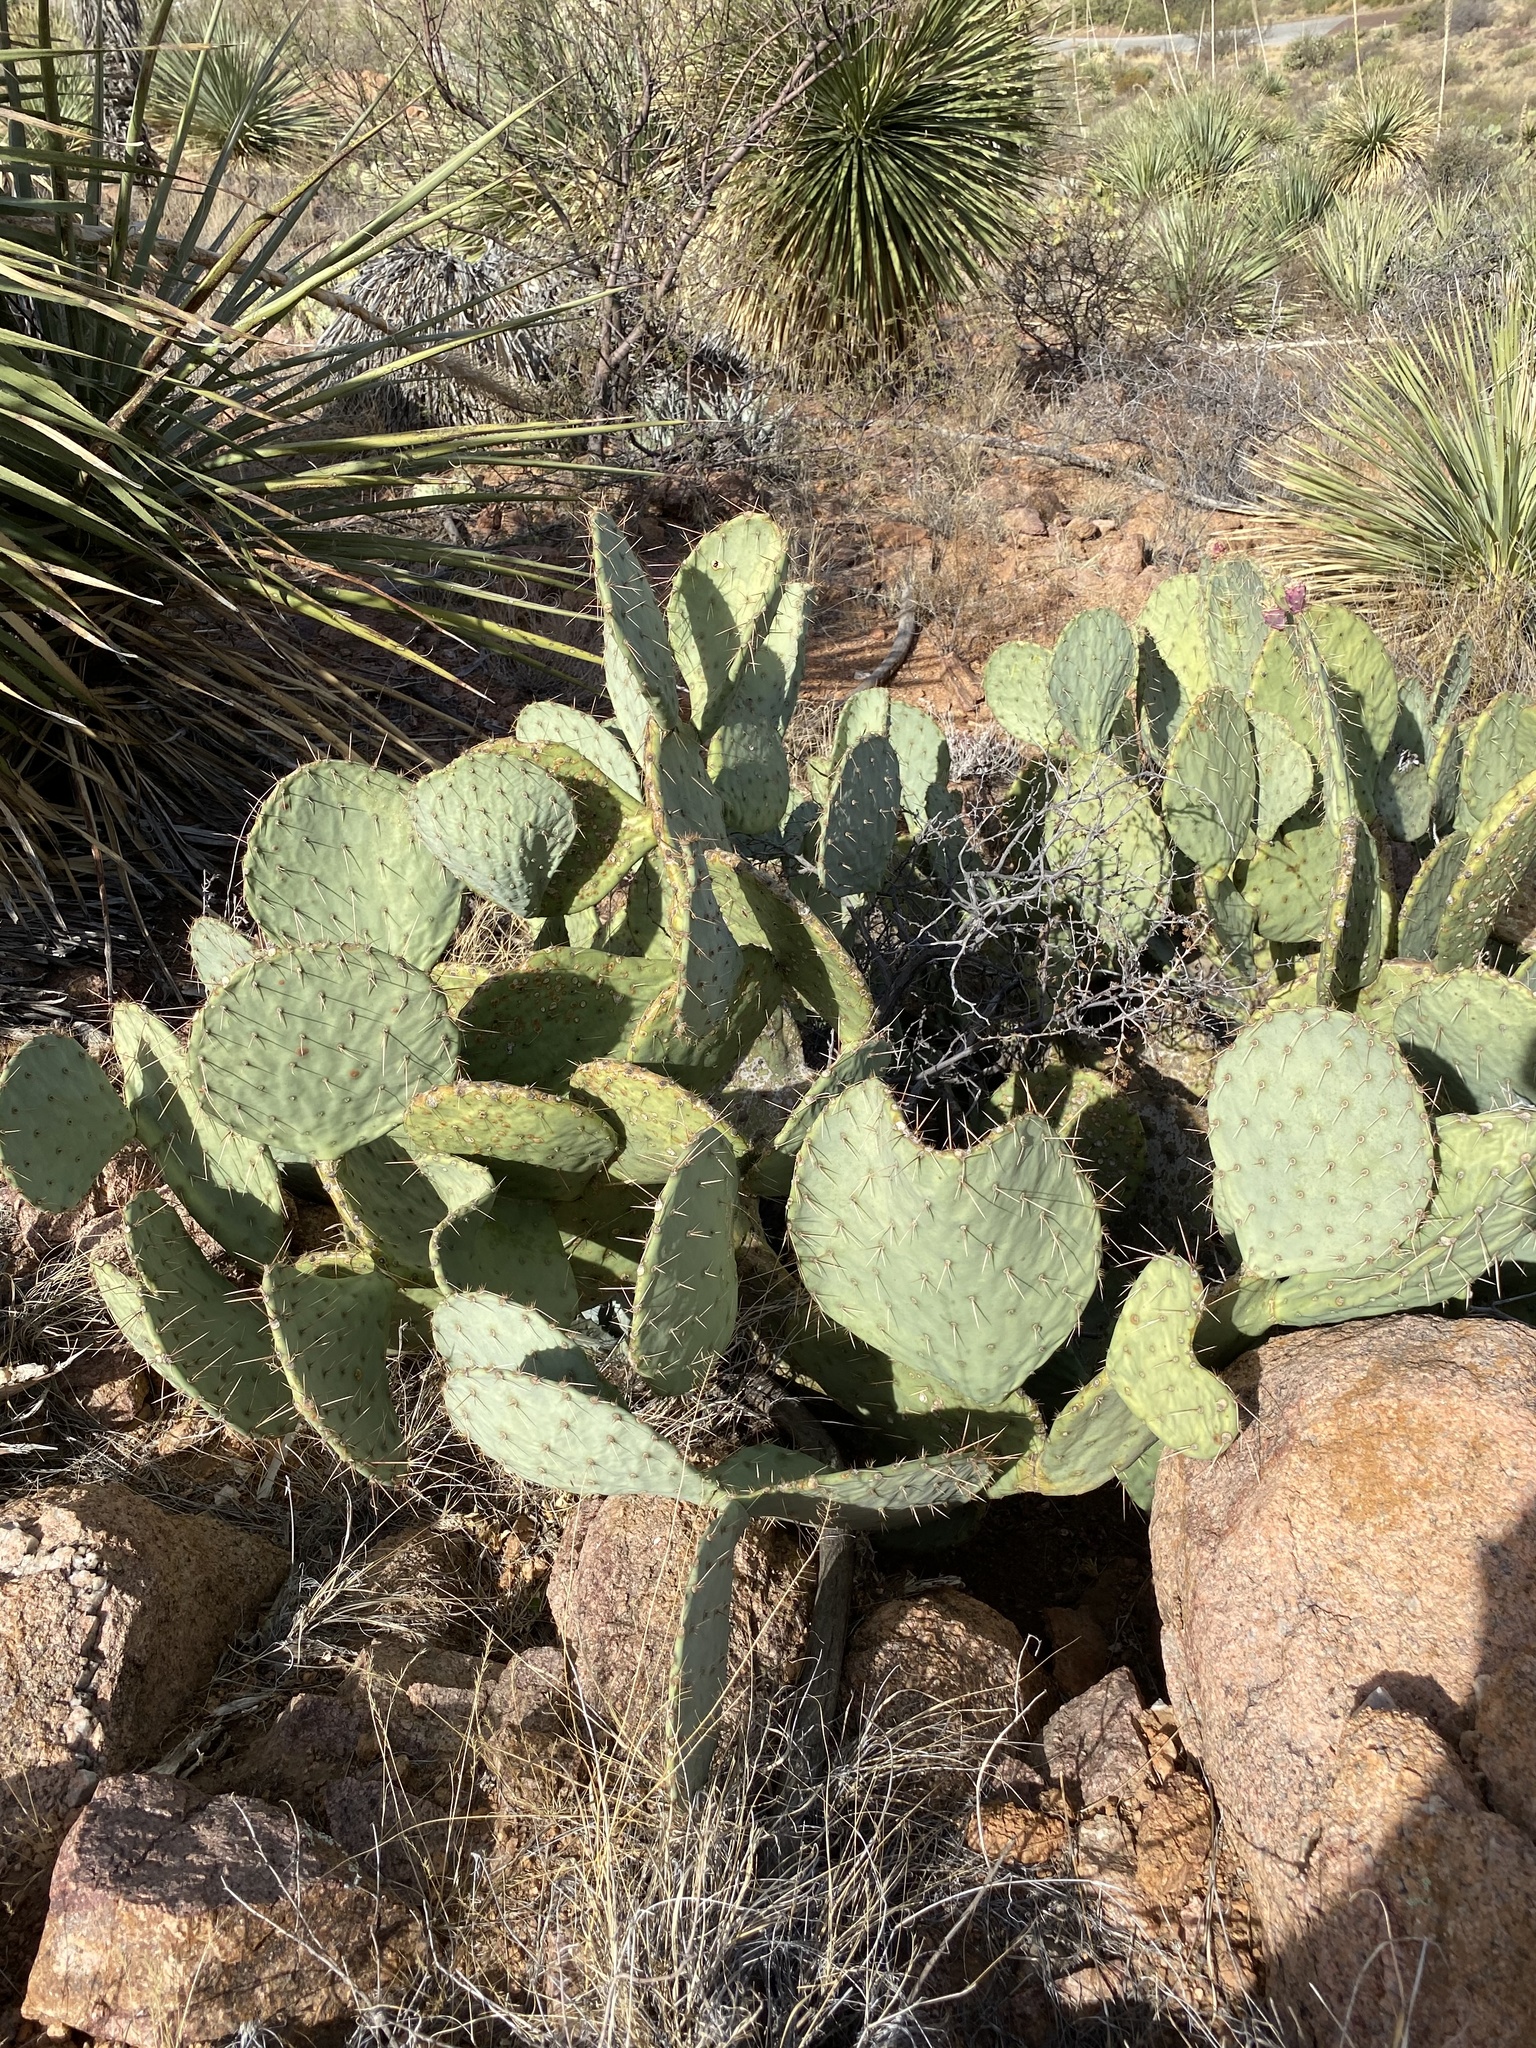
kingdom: Plantae
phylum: Tracheophyta
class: Magnoliopsida
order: Caryophyllales
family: Cactaceae
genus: Opuntia
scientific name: Opuntia engelmannii
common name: Cactus-apple
